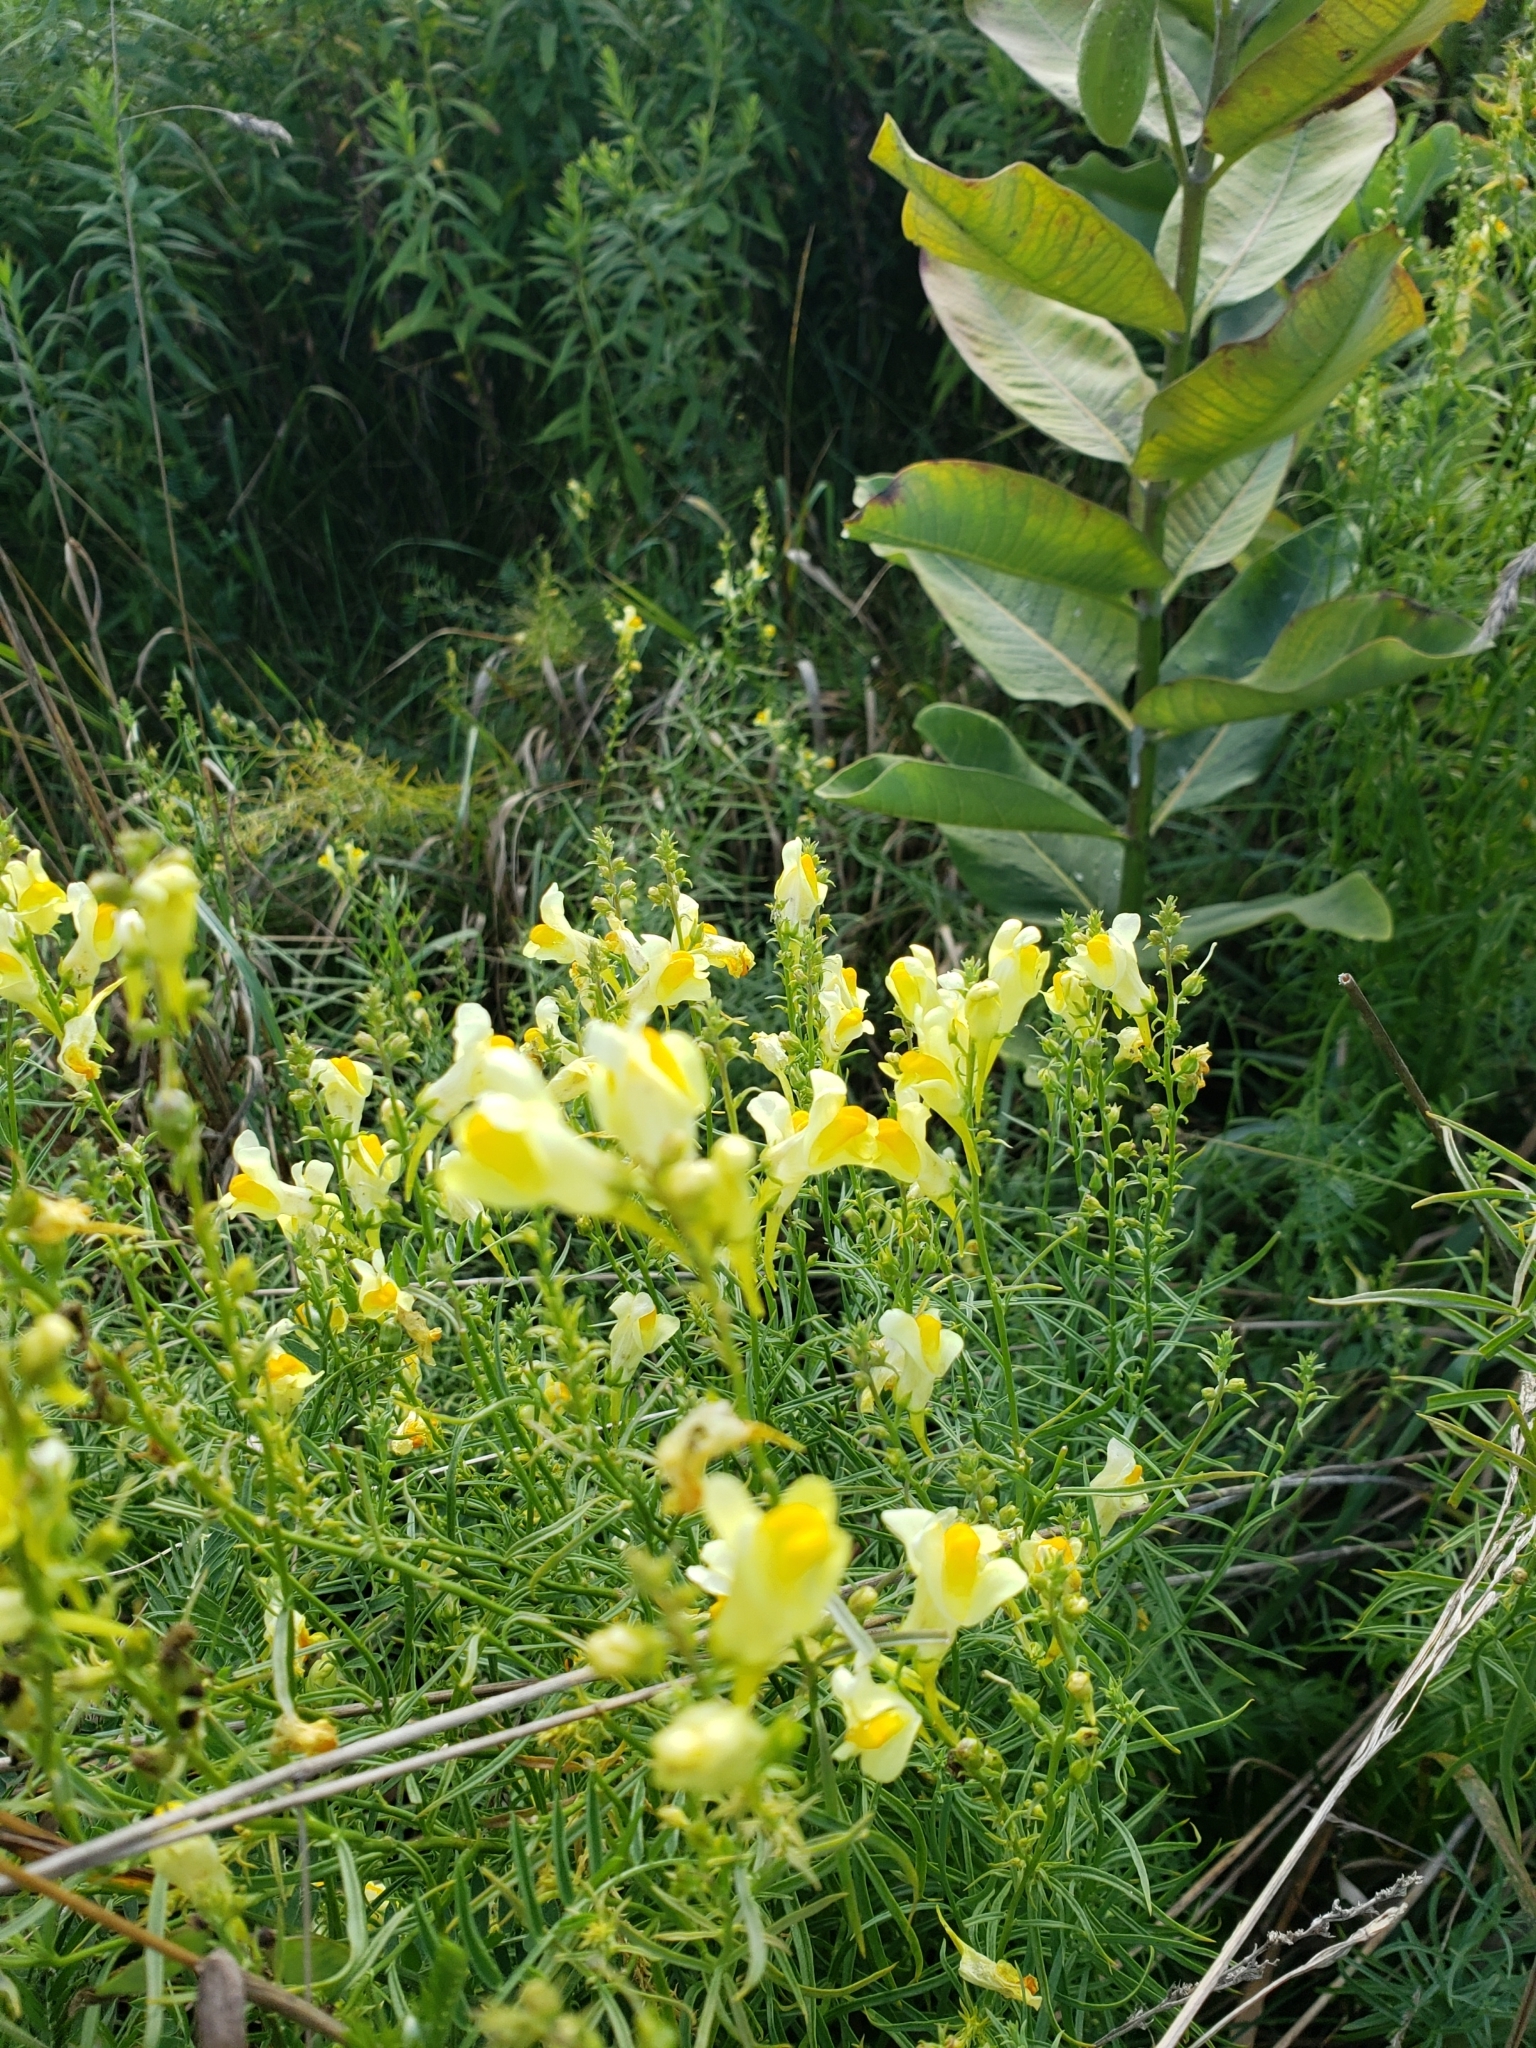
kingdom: Plantae
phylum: Tracheophyta
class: Magnoliopsida
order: Lamiales
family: Plantaginaceae
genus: Linaria
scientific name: Linaria vulgaris
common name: Butter and eggs
